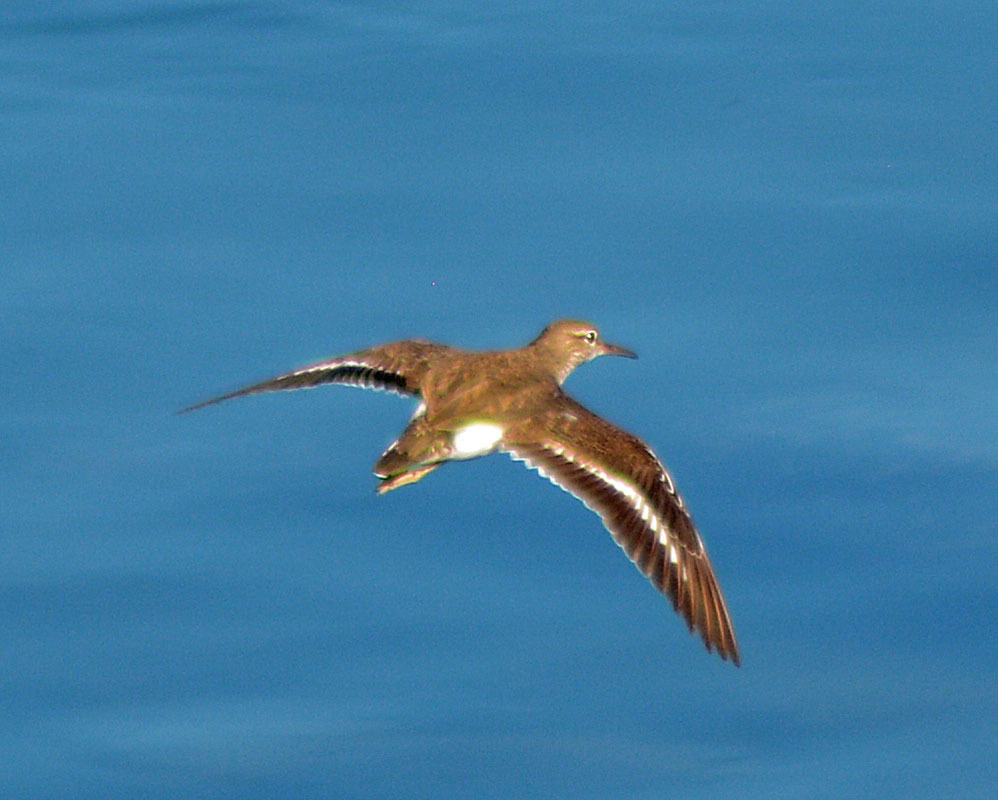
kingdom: Animalia
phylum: Chordata
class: Aves
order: Charadriiformes
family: Scolopacidae
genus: Actitis
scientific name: Actitis macularius
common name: Spotted sandpiper
